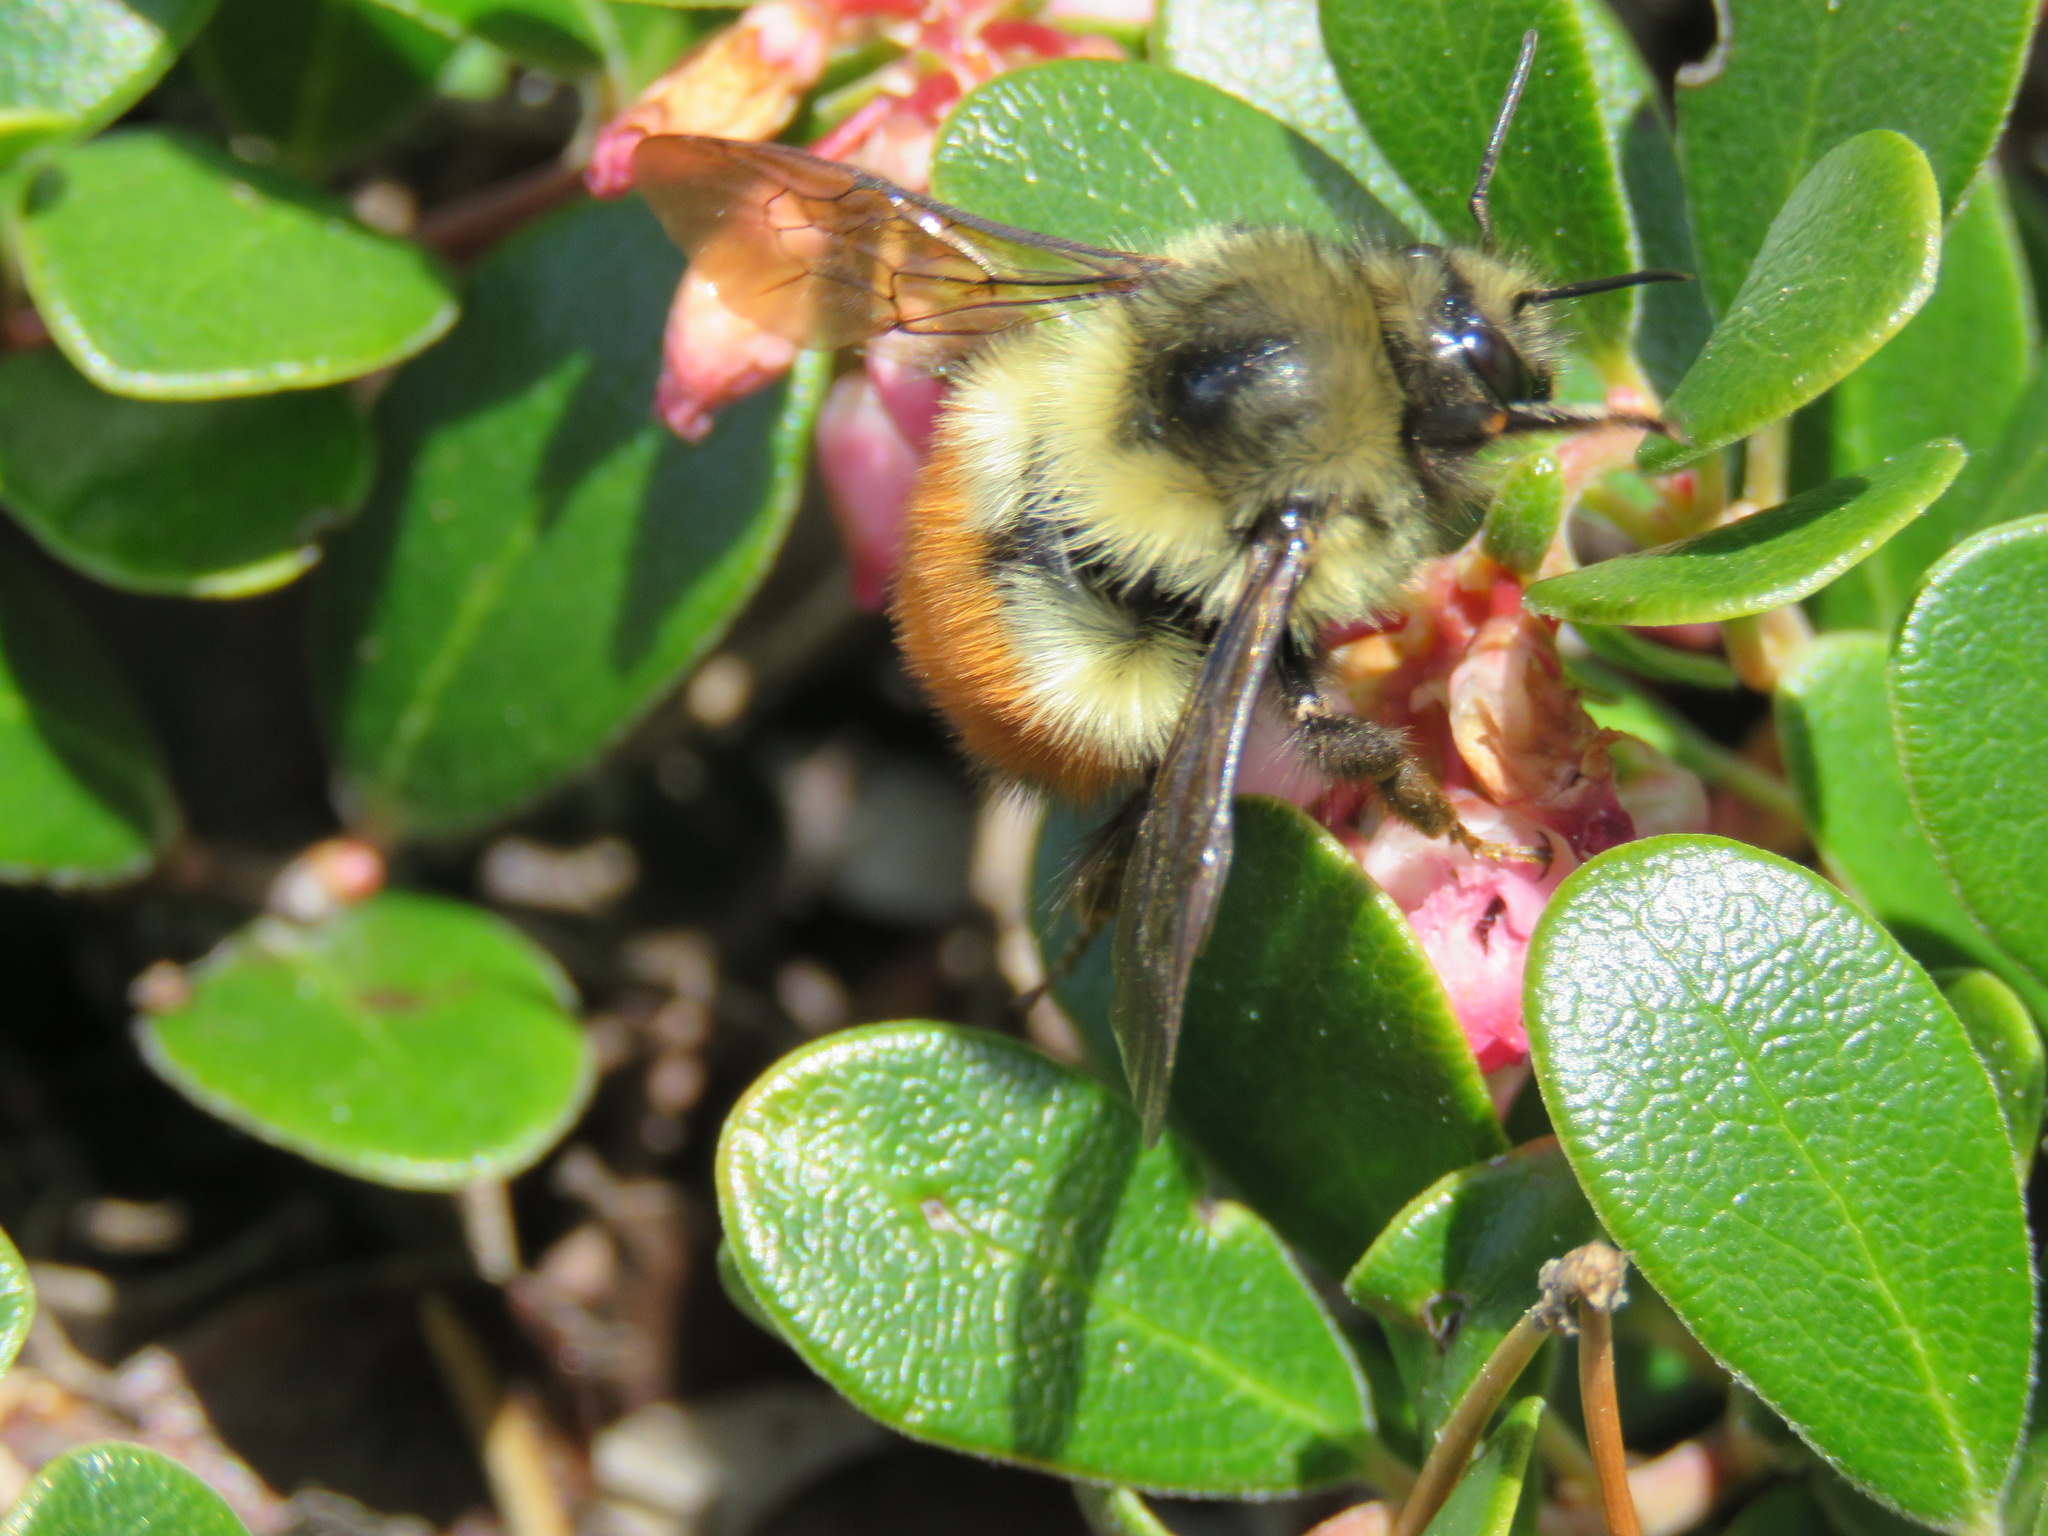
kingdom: Animalia
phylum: Arthropoda
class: Insecta
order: Hymenoptera
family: Apidae
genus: Bombus
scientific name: Bombus melanopygus
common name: Black tail bumble bee
